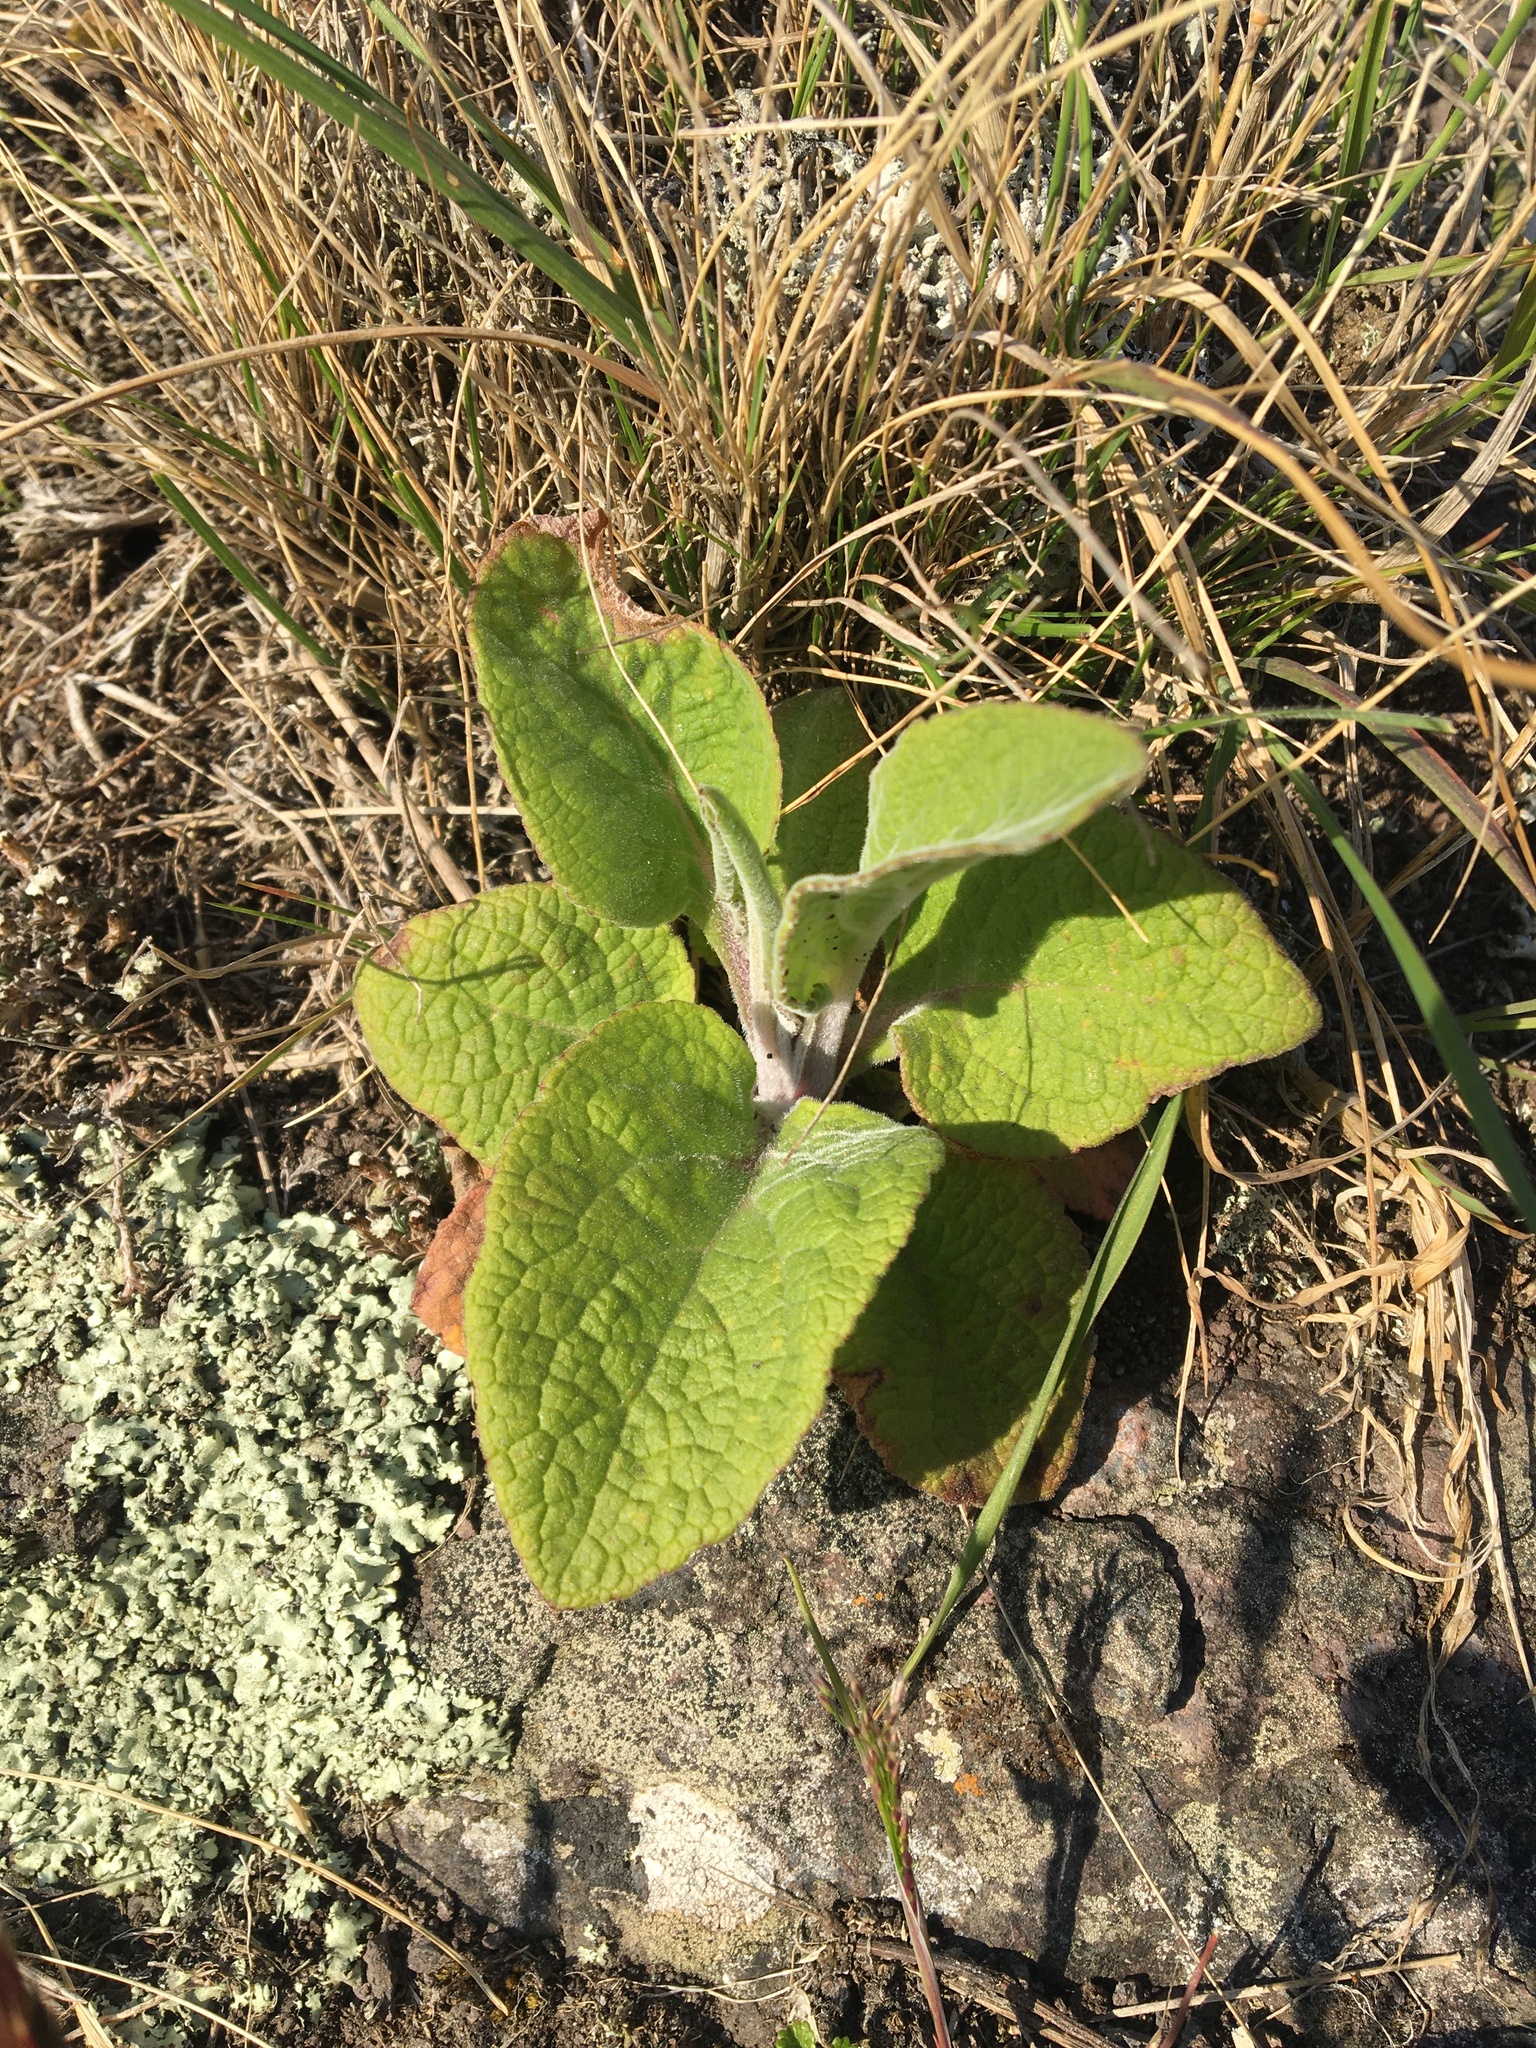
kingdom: Plantae
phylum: Tracheophyta
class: Magnoliopsida
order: Lamiales
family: Plantaginaceae
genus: Digitalis
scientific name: Digitalis purpurea
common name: Foxglove
